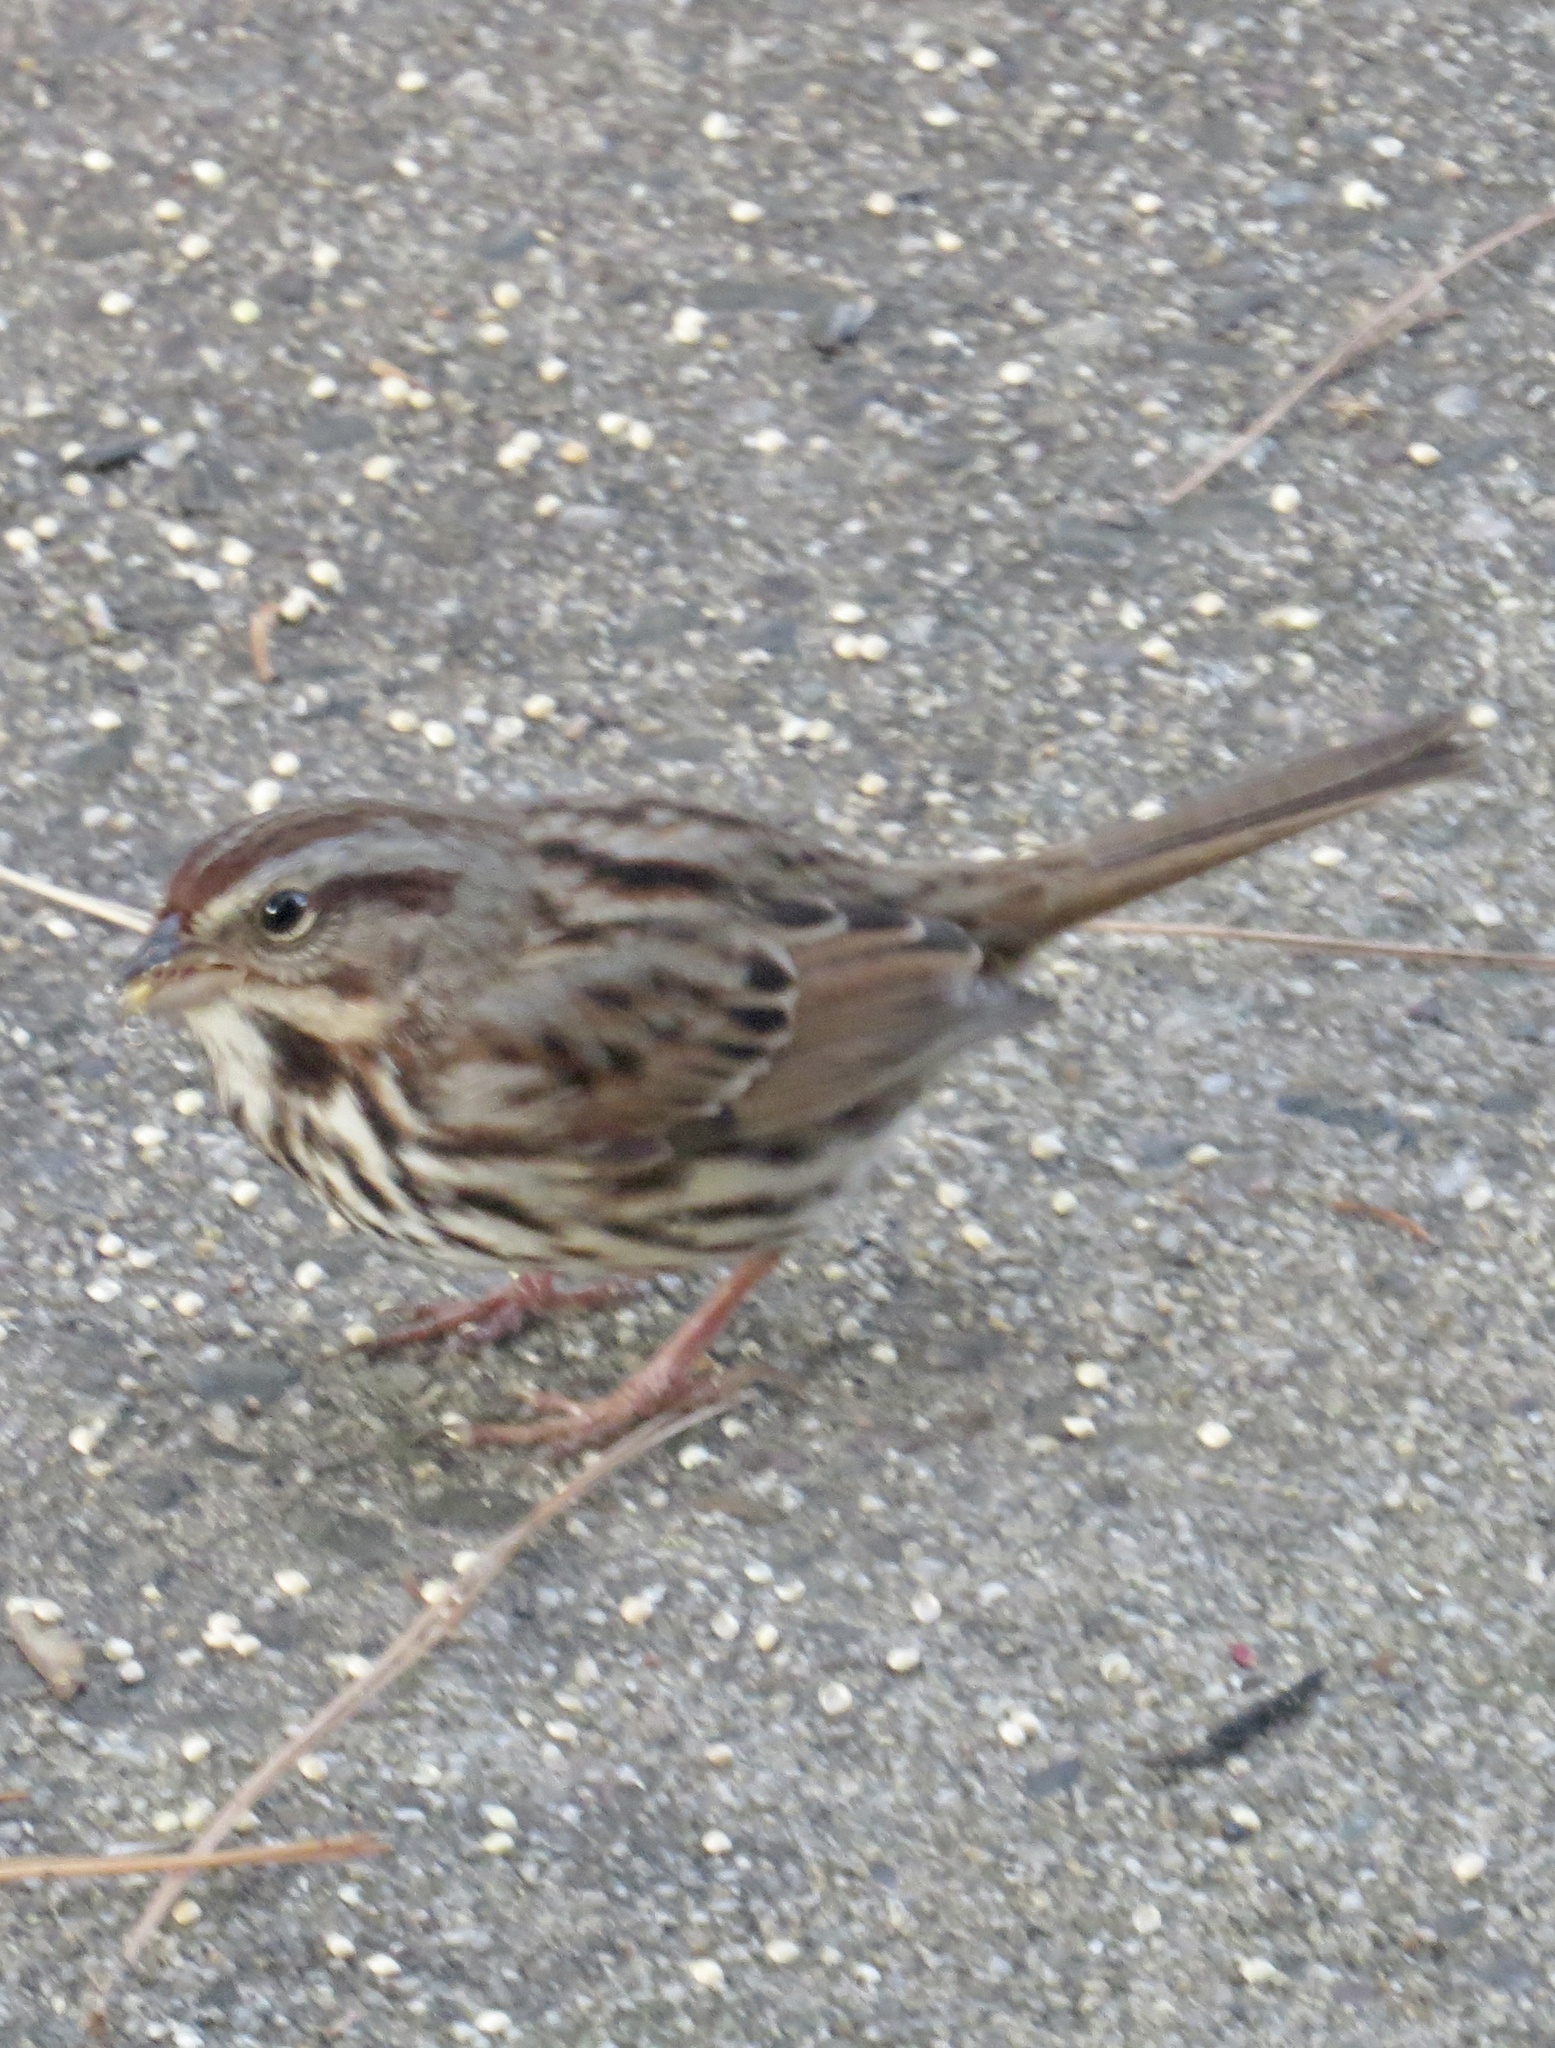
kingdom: Animalia
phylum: Chordata
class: Aves
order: Passeriformes
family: Passerellidae
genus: Melospiza
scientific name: Melospiza melodia
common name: Song sparrow
